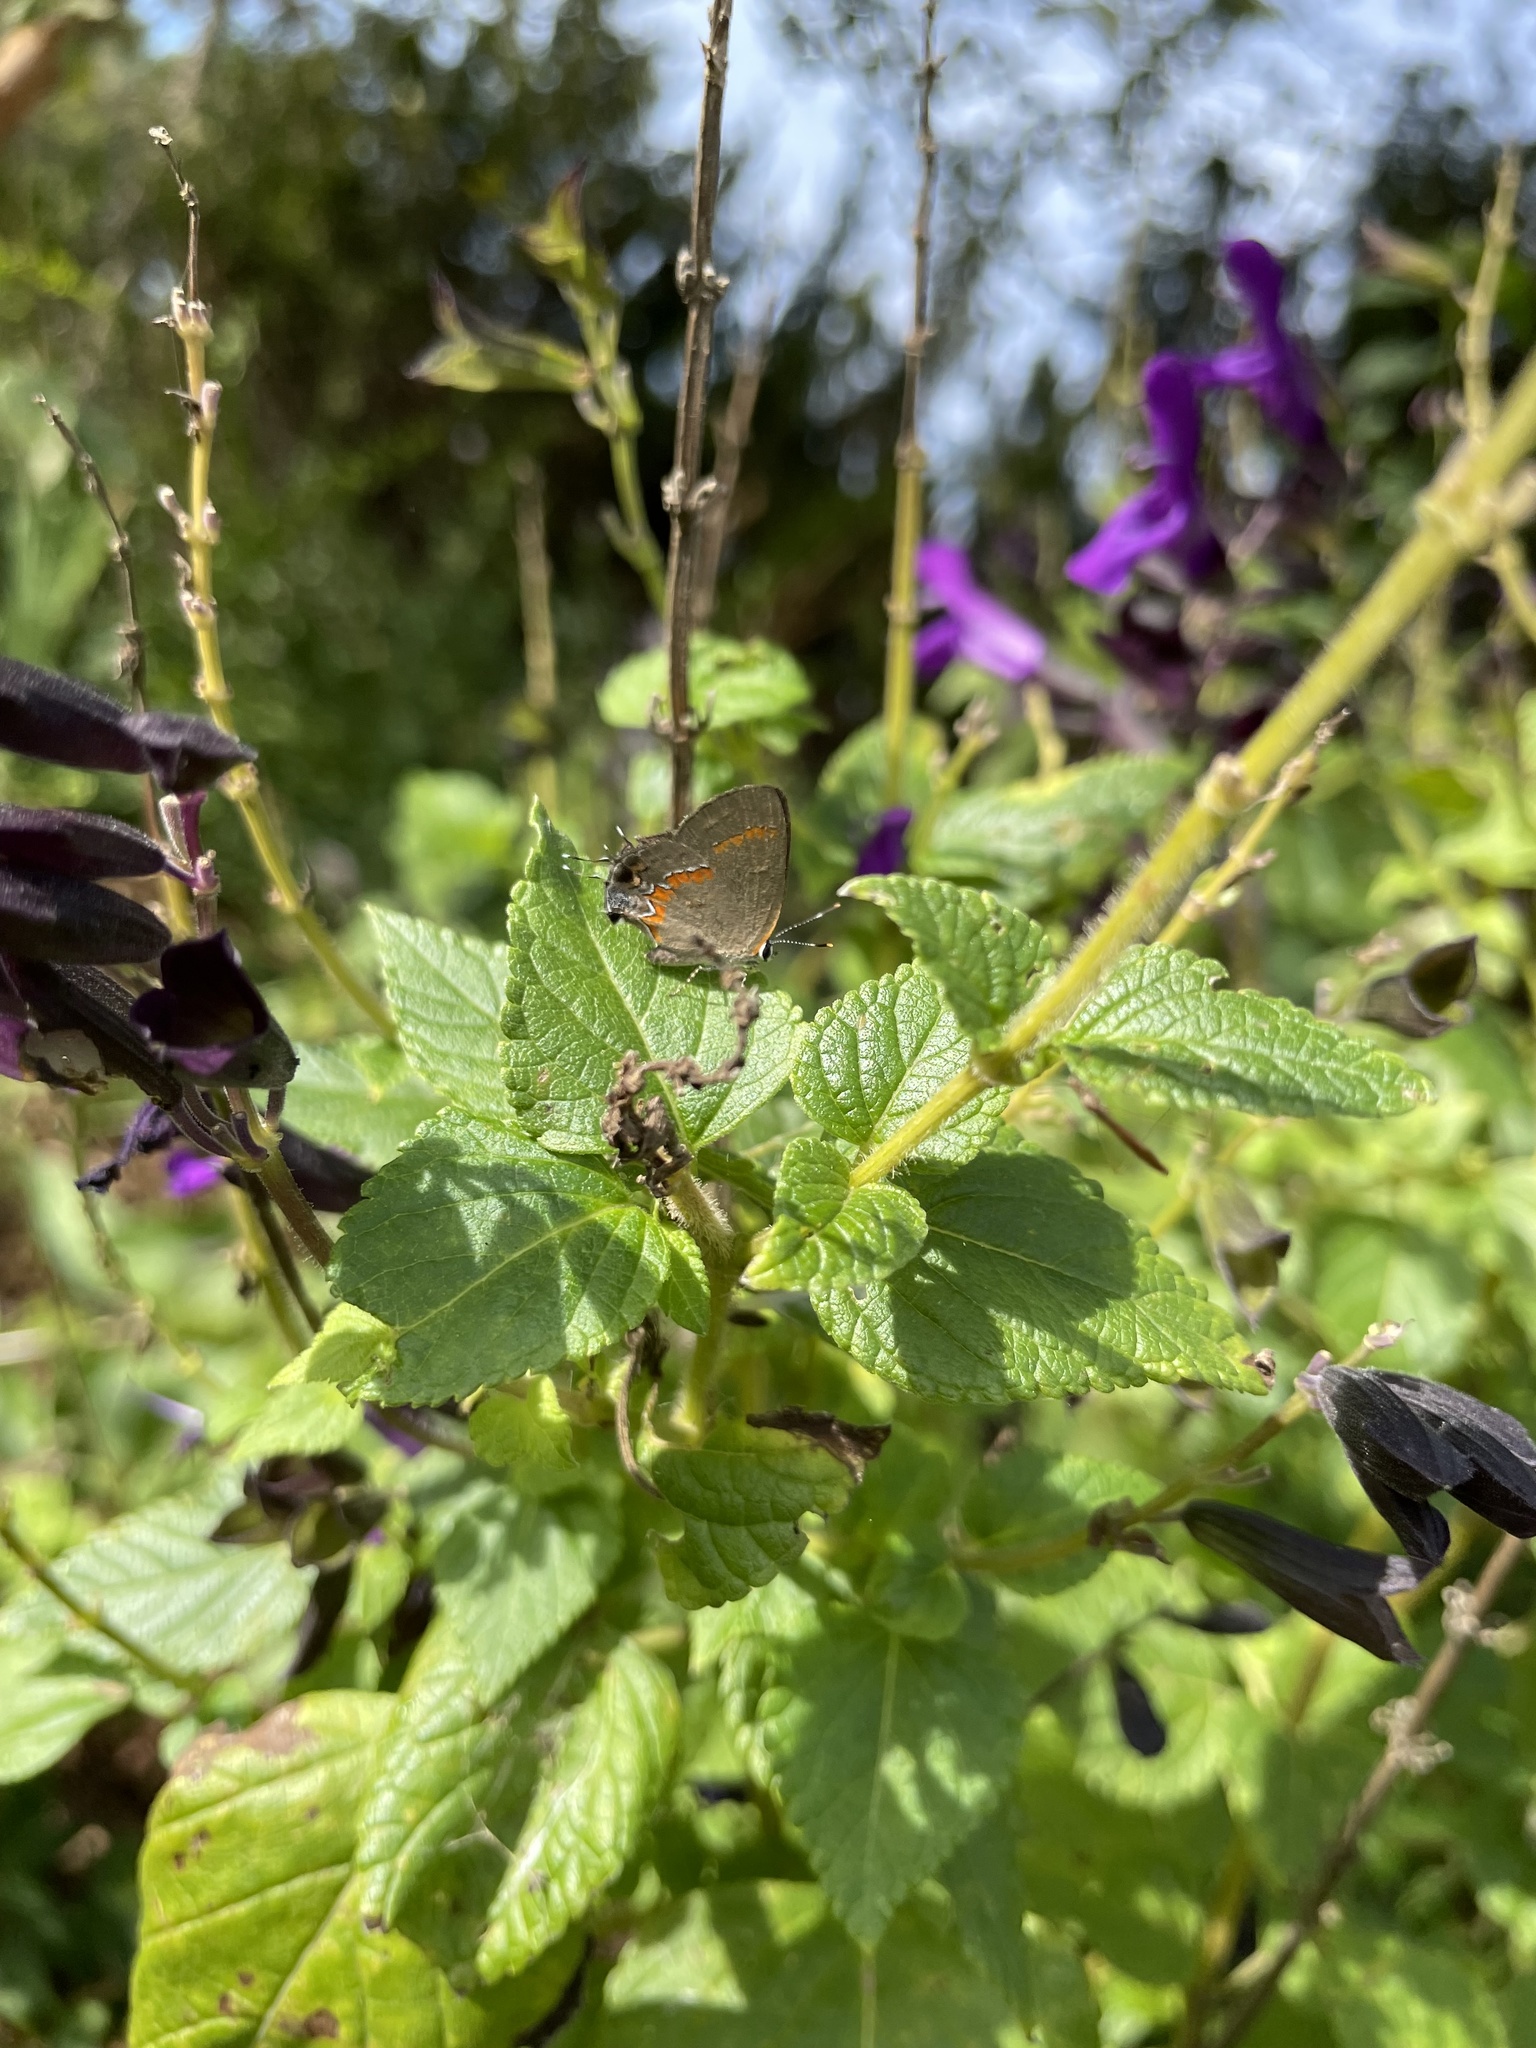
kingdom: Animalia
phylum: Arthropoda
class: Insecta
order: Lepidoptera
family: Lycaenidae
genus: Calycopis
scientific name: Calycopis cecrops
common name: Red-banded hairstreak
